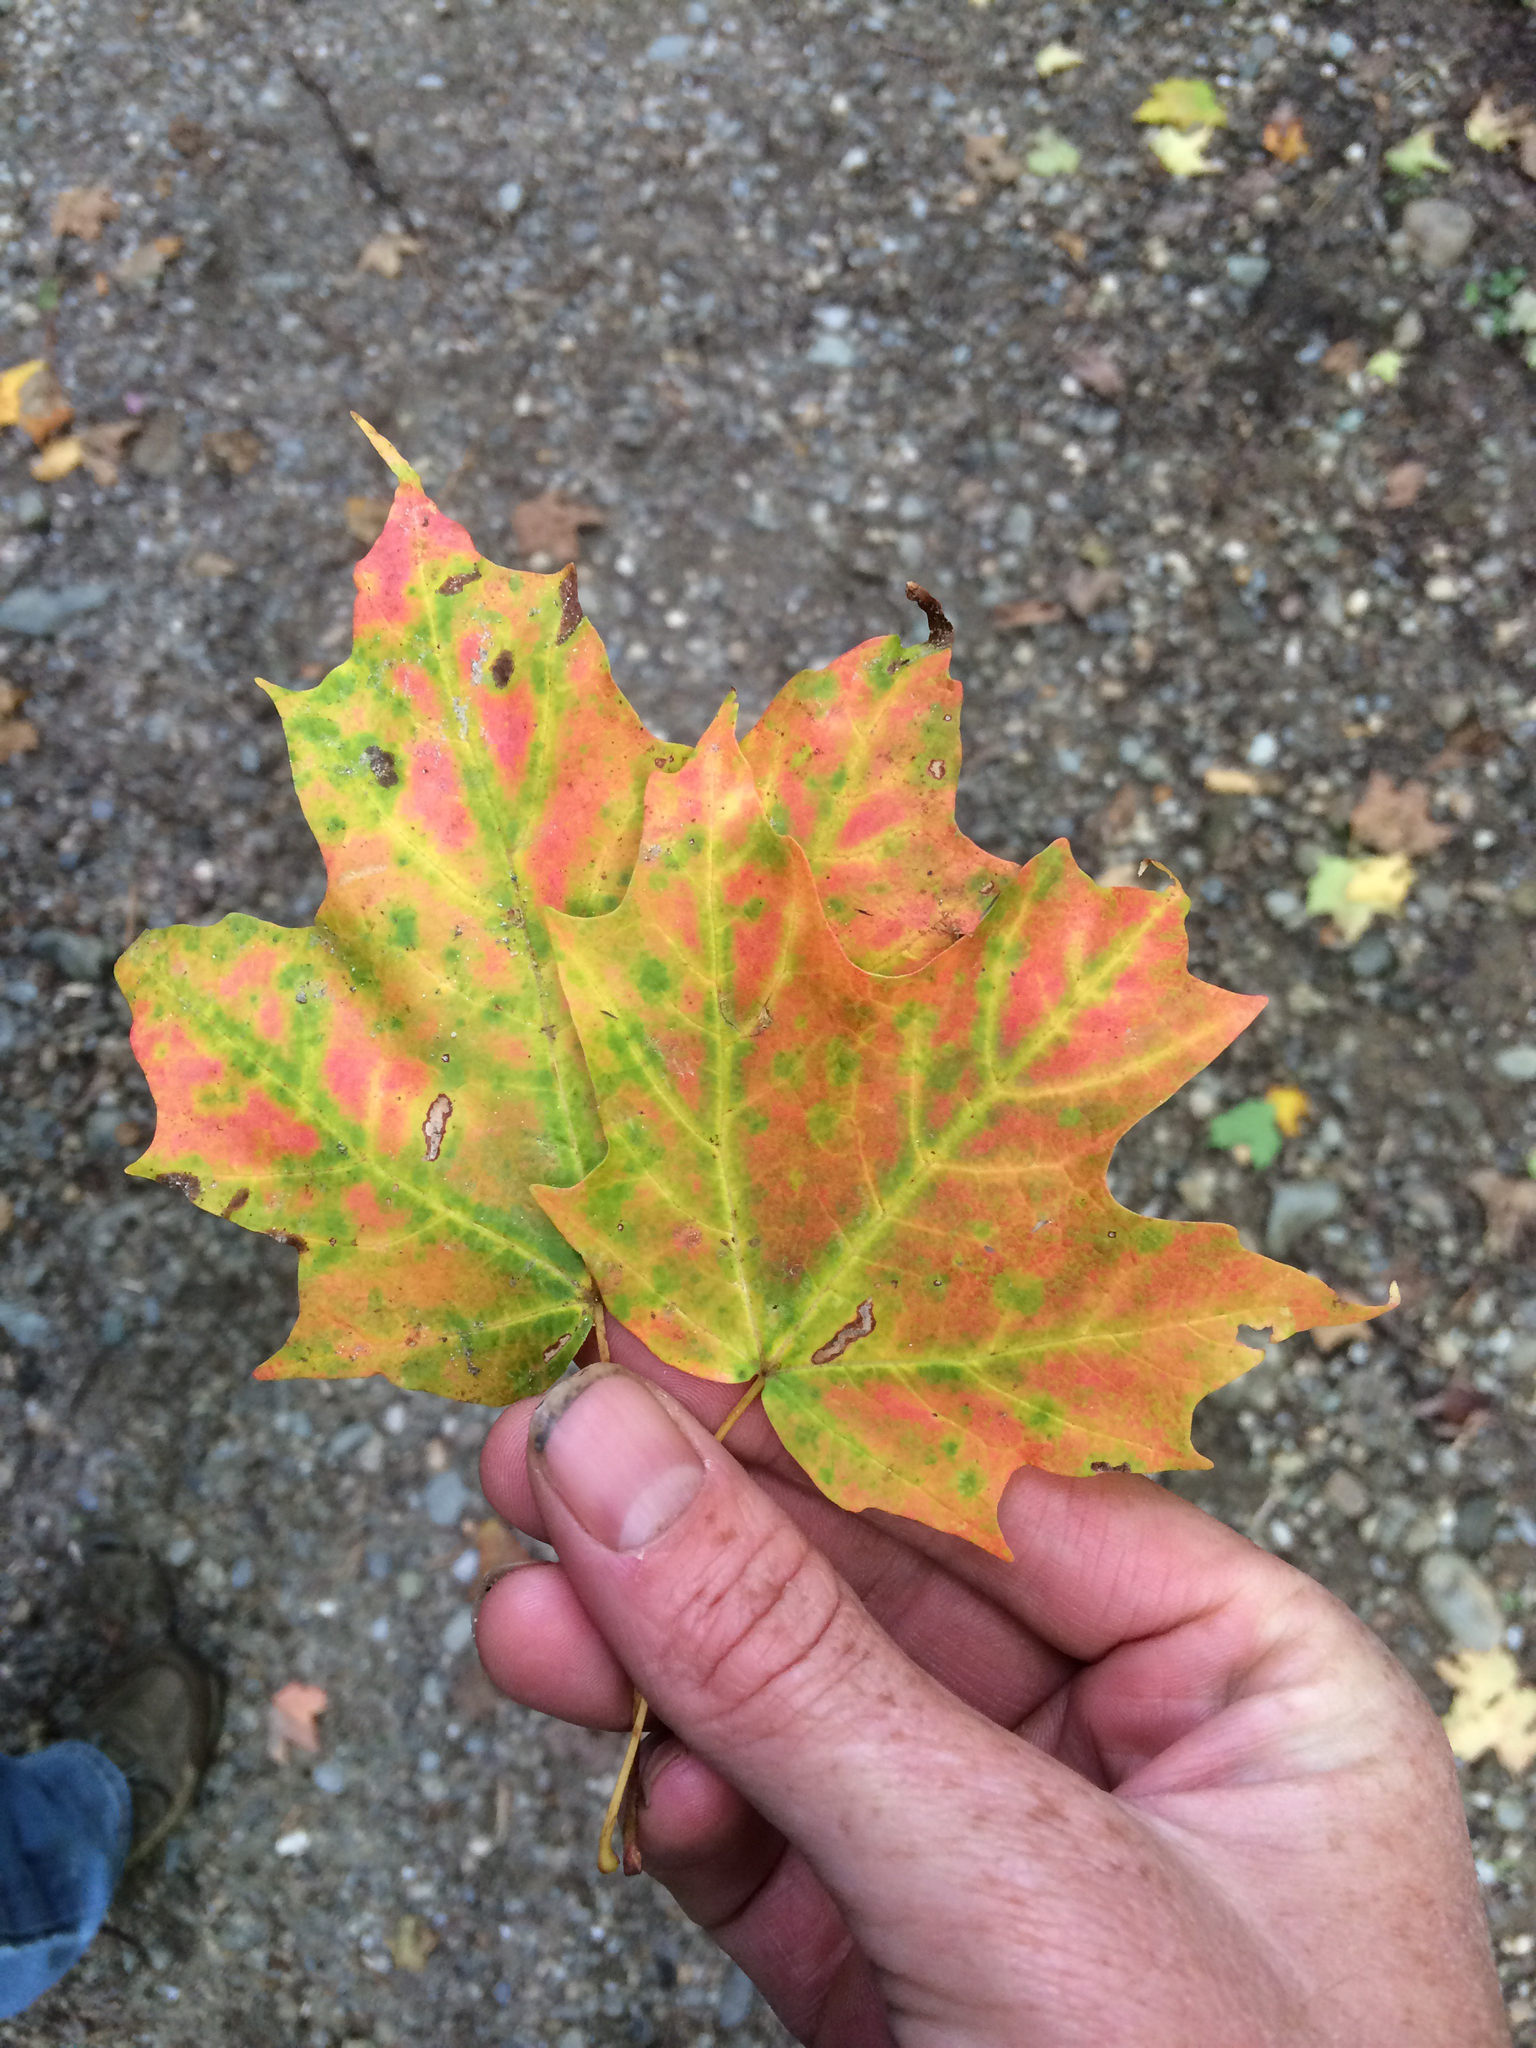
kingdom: Plantae
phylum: Tracheophyta
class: Magnoliopsida
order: Sapindales
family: Sapindaceae
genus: Acer
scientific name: Acer saccharum
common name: Sugar maple
